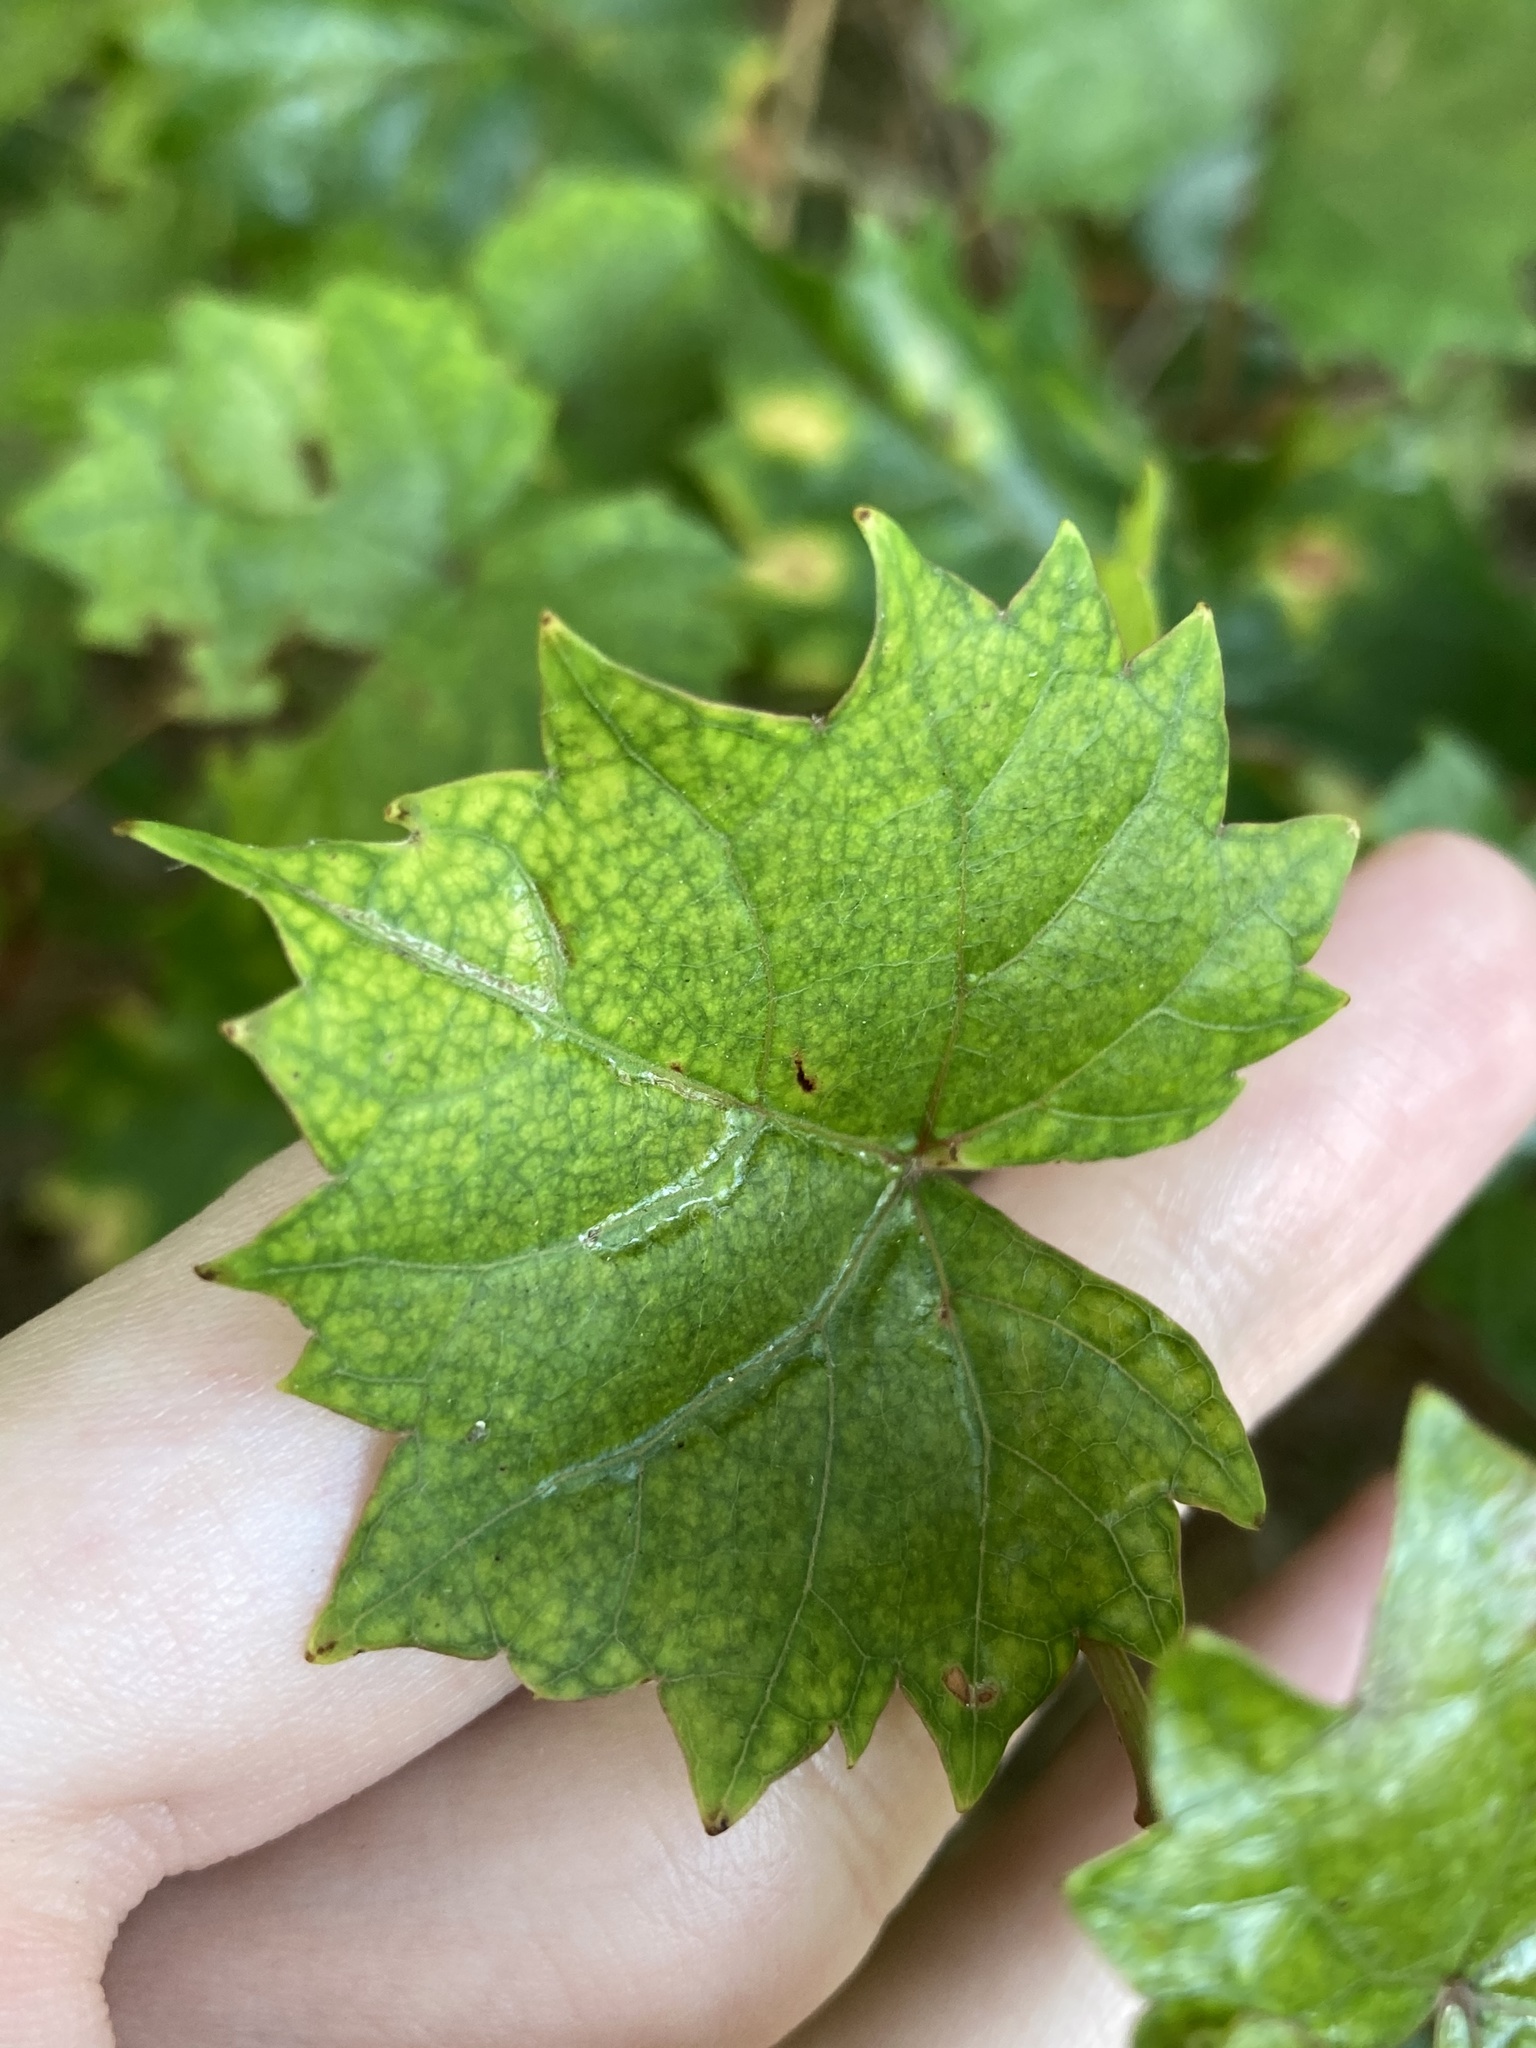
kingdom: Animalia
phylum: Arthropoda
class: Insecta
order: Lepidoptera
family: Gracillariidae
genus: Phyllocnistis
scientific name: Phyllocnistis vitegenella
